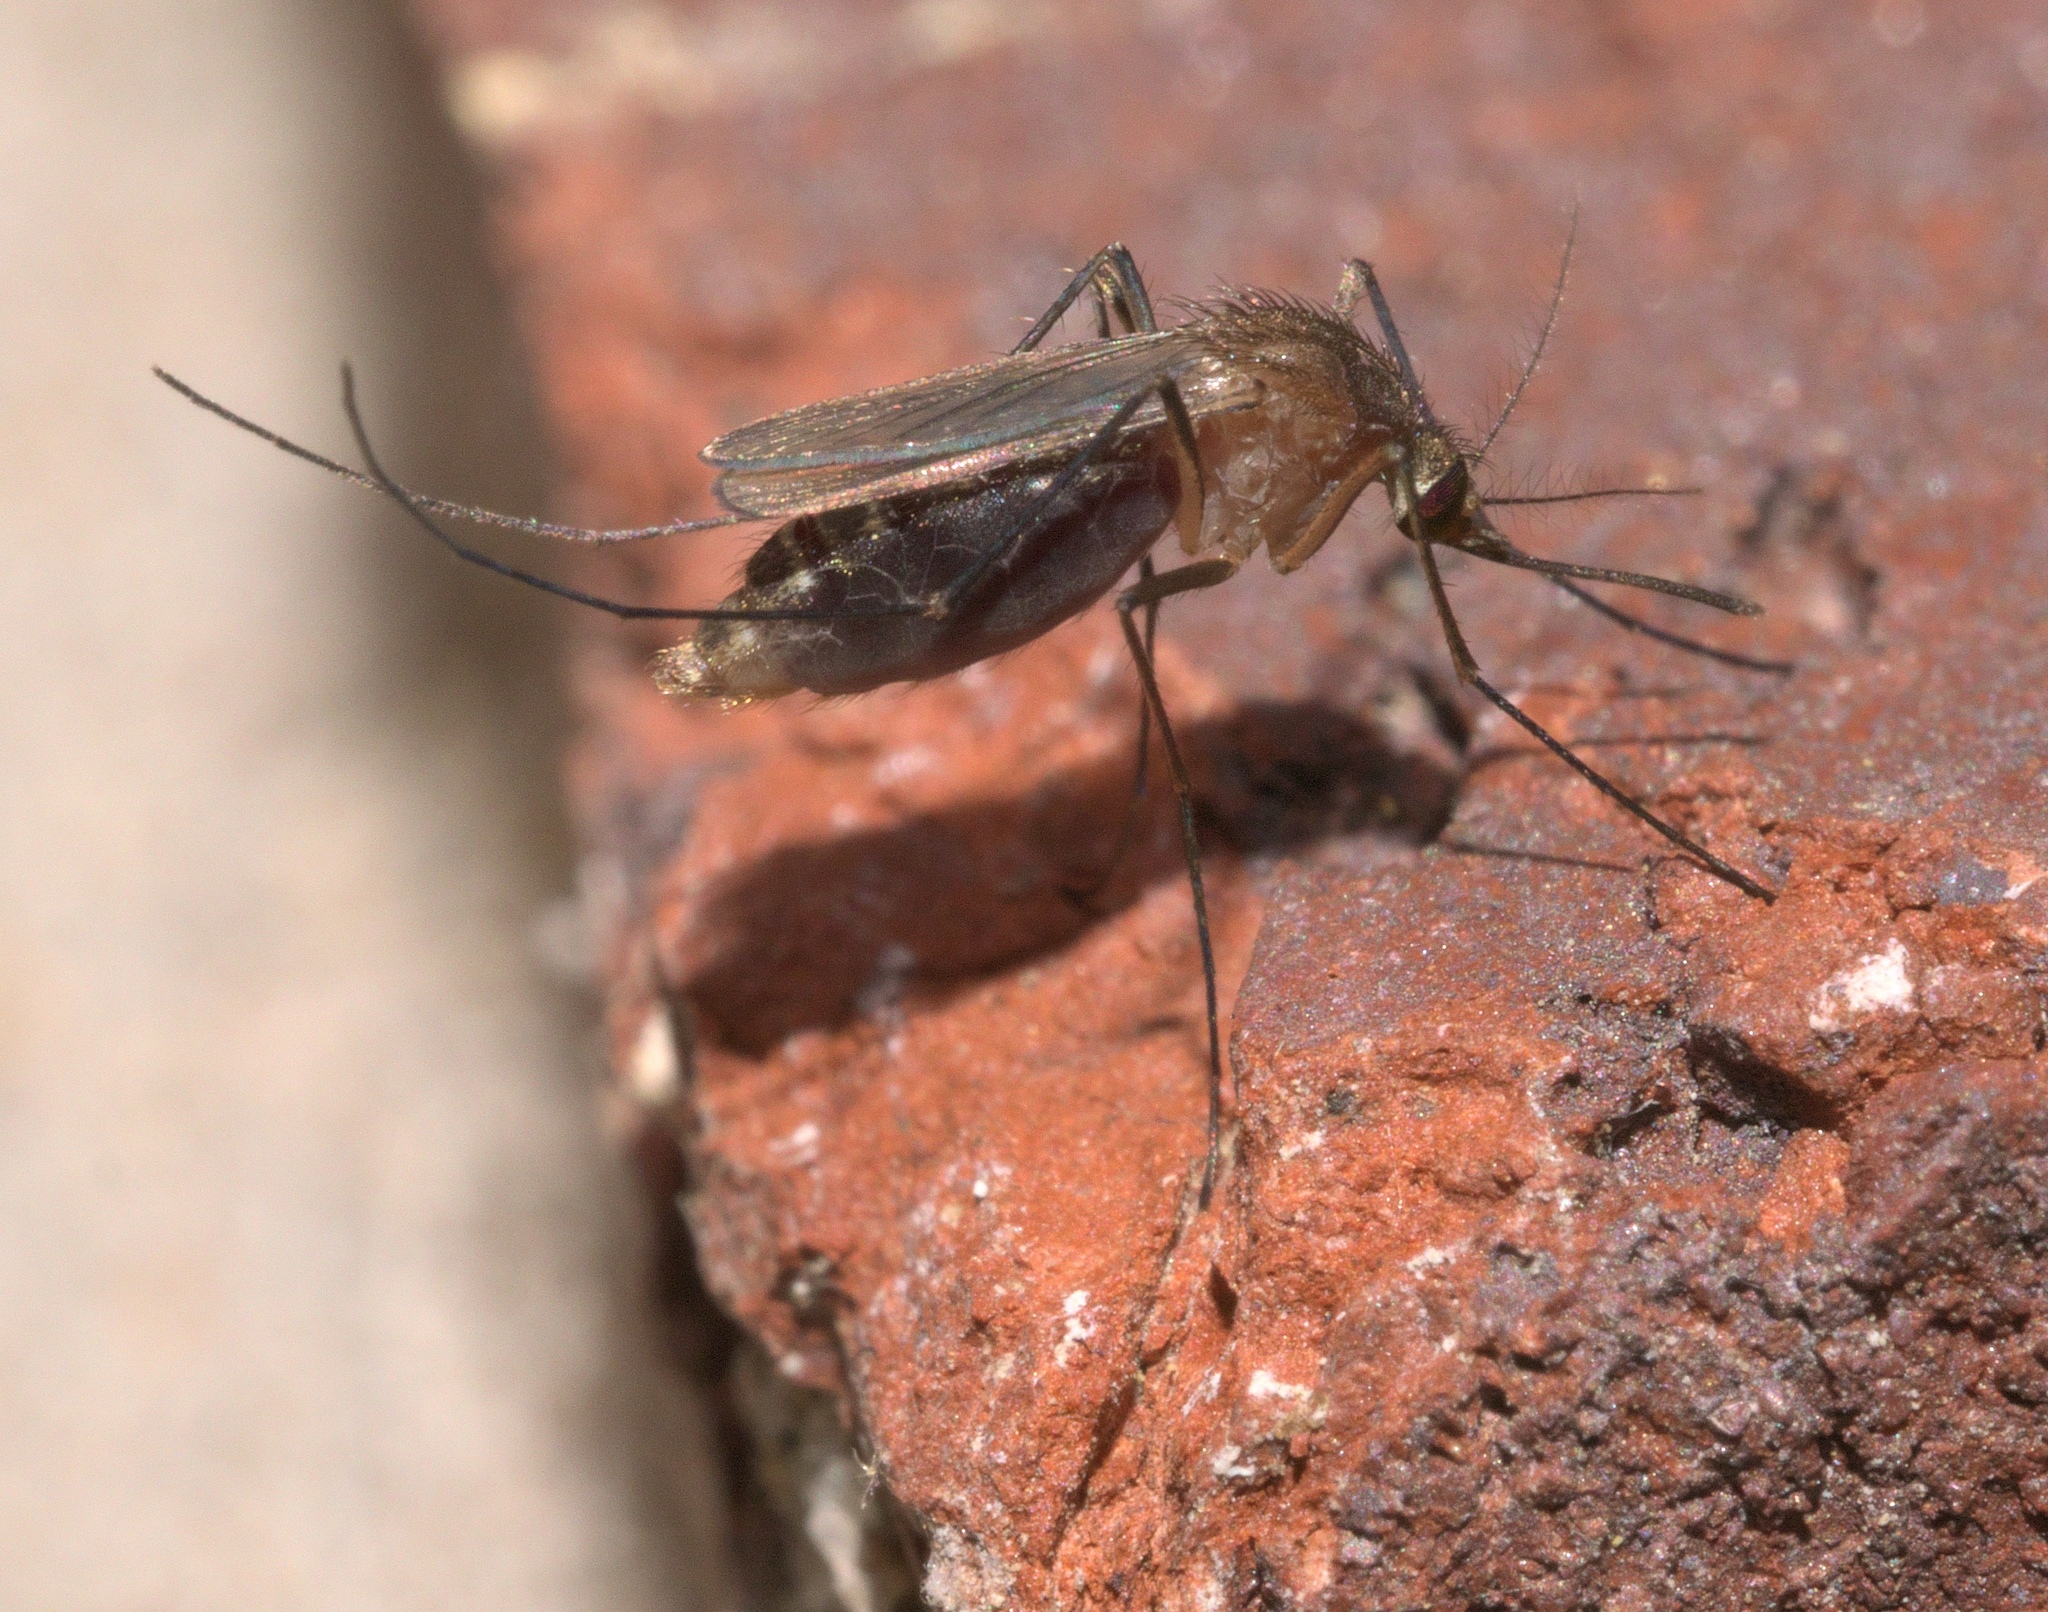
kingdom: Animalia
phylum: Arthropoda
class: Insecta
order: Diptera
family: Culicidae
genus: Culex
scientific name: Culex quinquefasciatus
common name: Southern house mosquito
